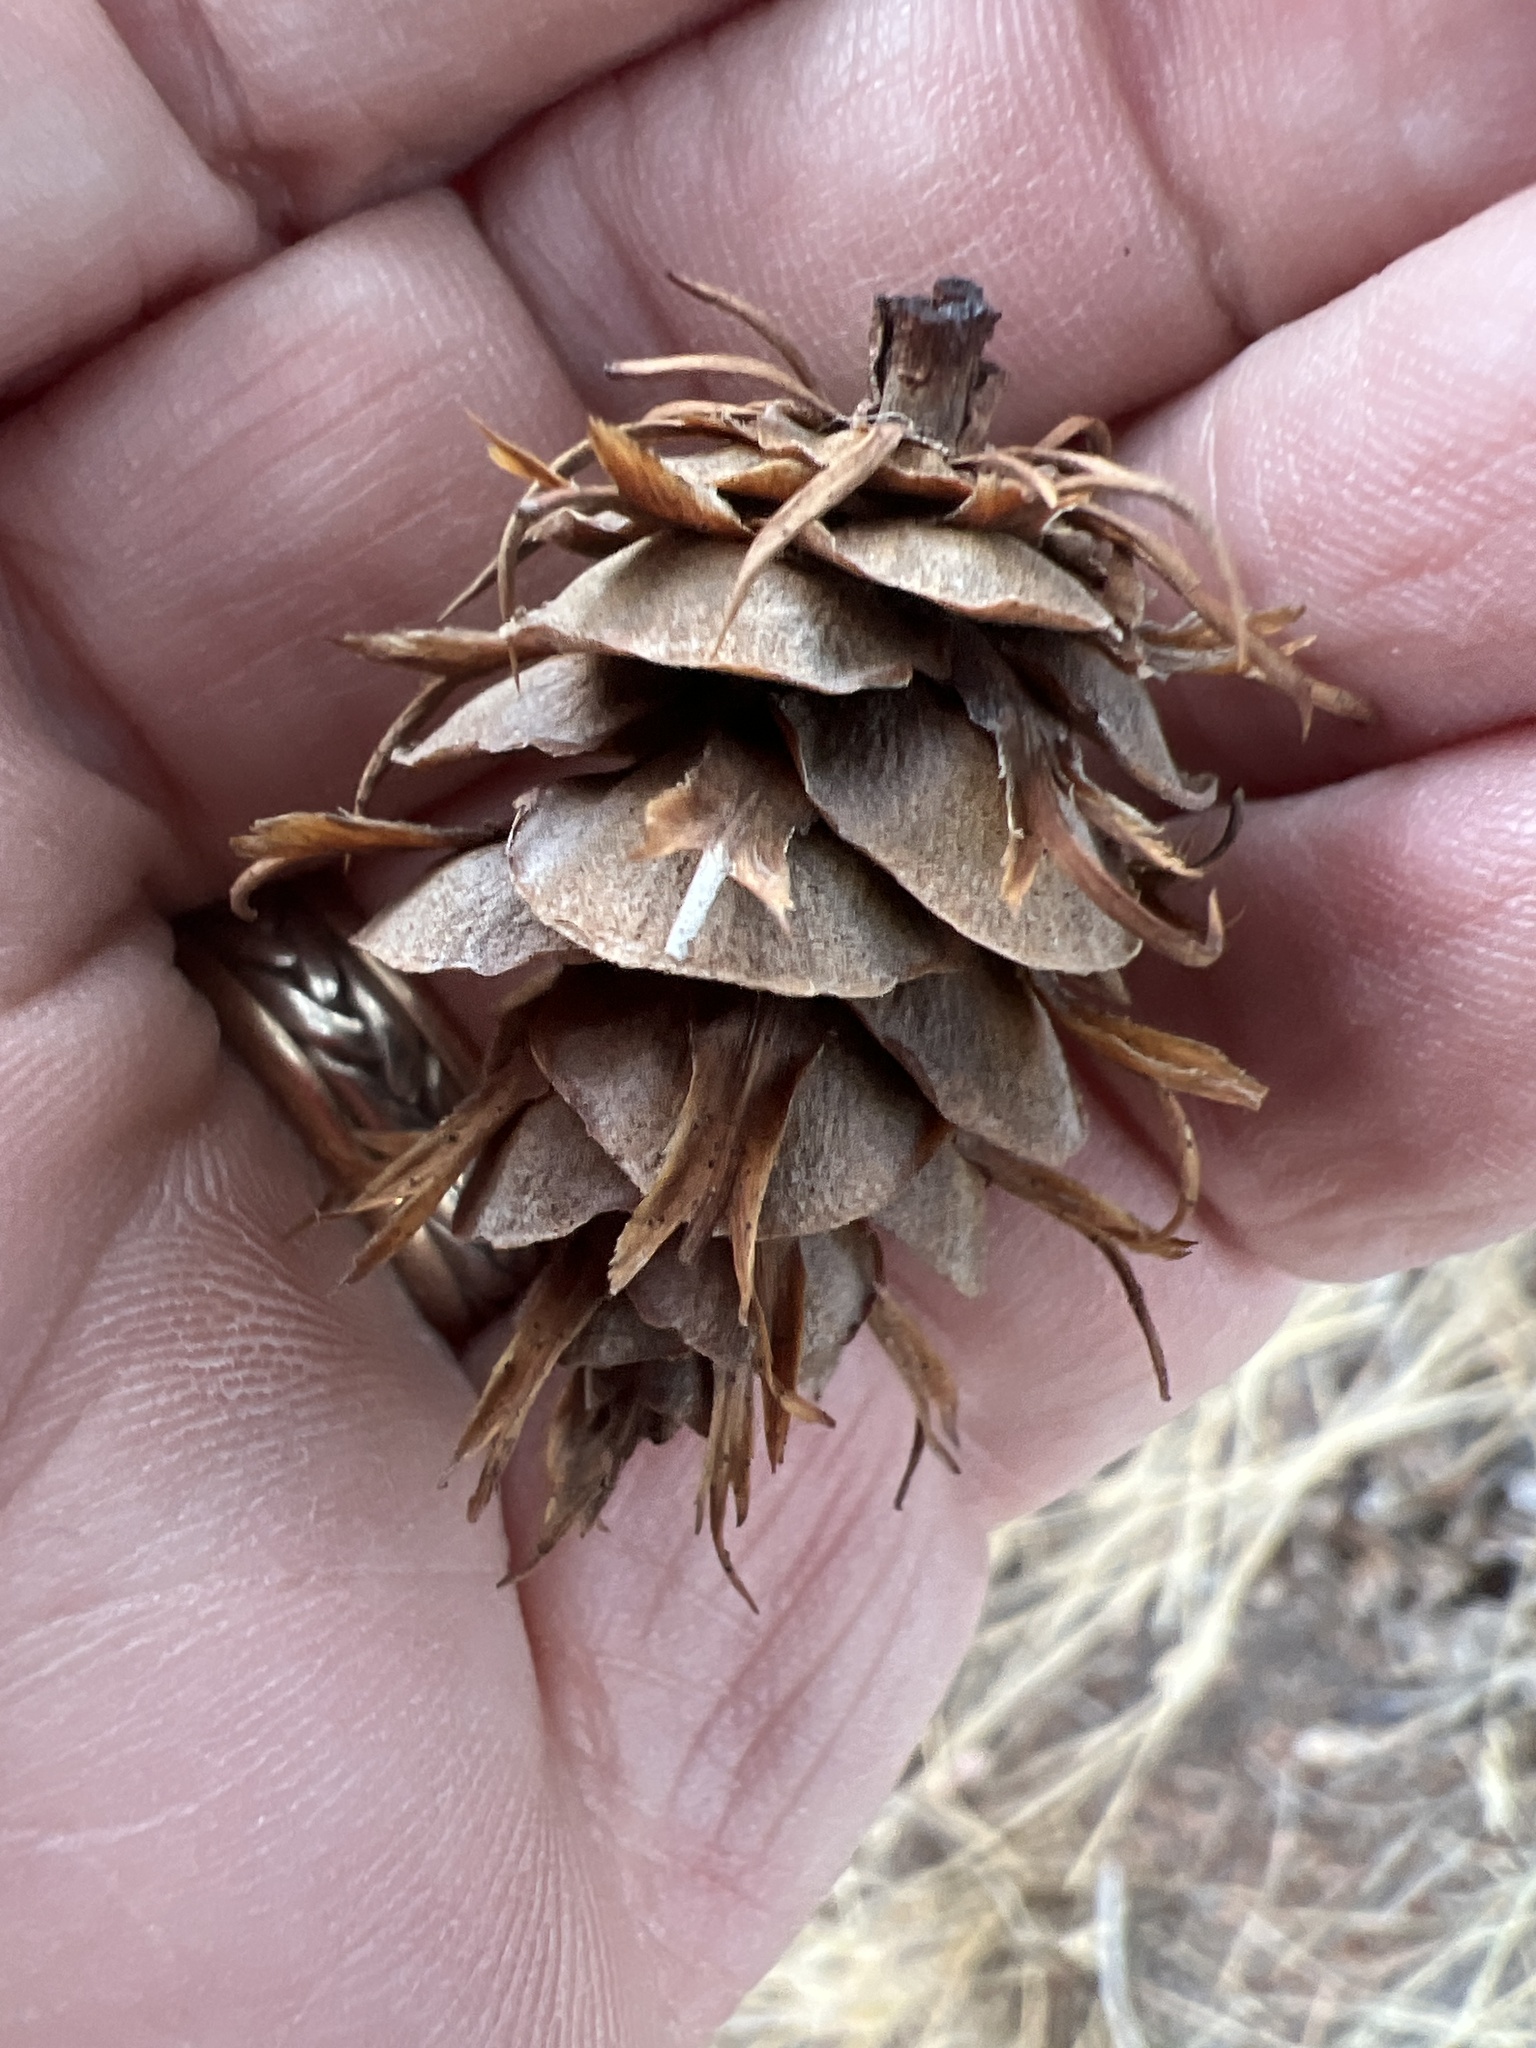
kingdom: Plantae
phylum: Tracheophyta
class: Pinopsida
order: Pinales
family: Pinaceae
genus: Pseudotsuga
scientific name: Pseudotsuga menziesii
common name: Douglas fir
